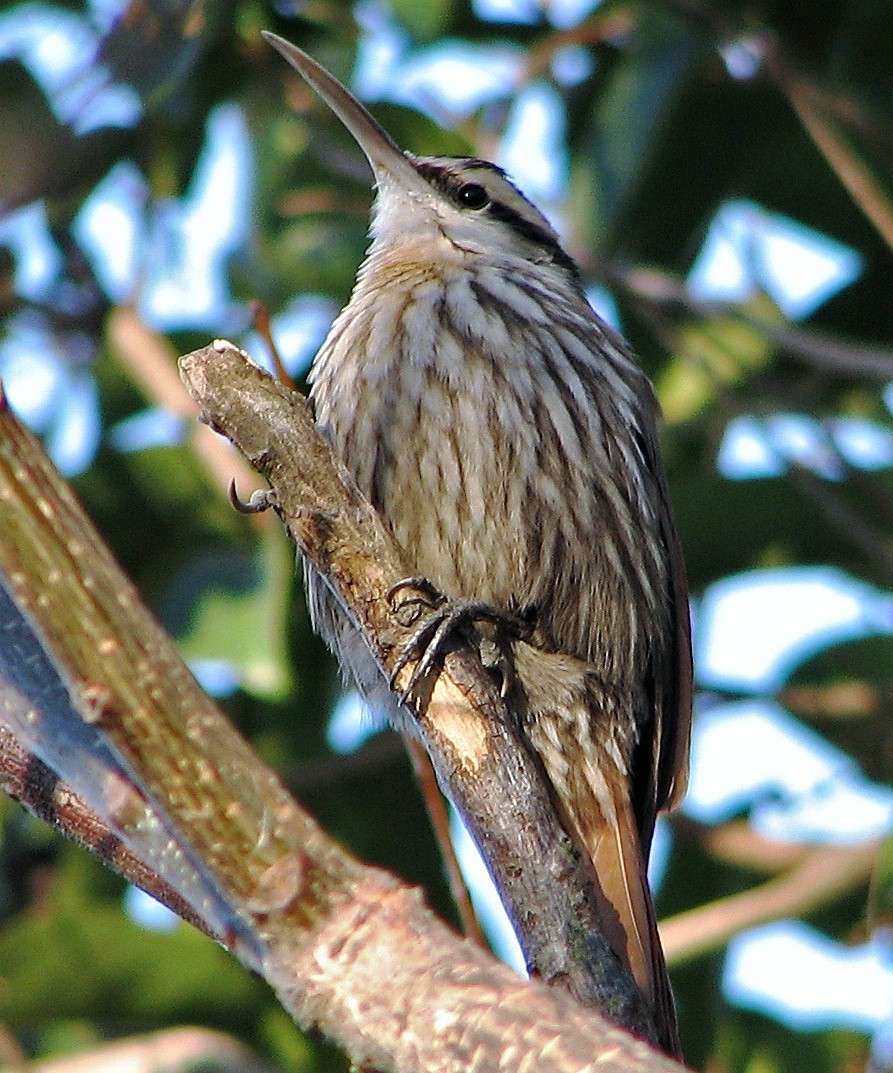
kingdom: Animalia
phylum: Chordata
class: Aves
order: Passeriformes
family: Furnariidae
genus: Lepidocolaptes
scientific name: Lepidocolaptes angustirostris
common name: Narrow-billed woodcreeper
